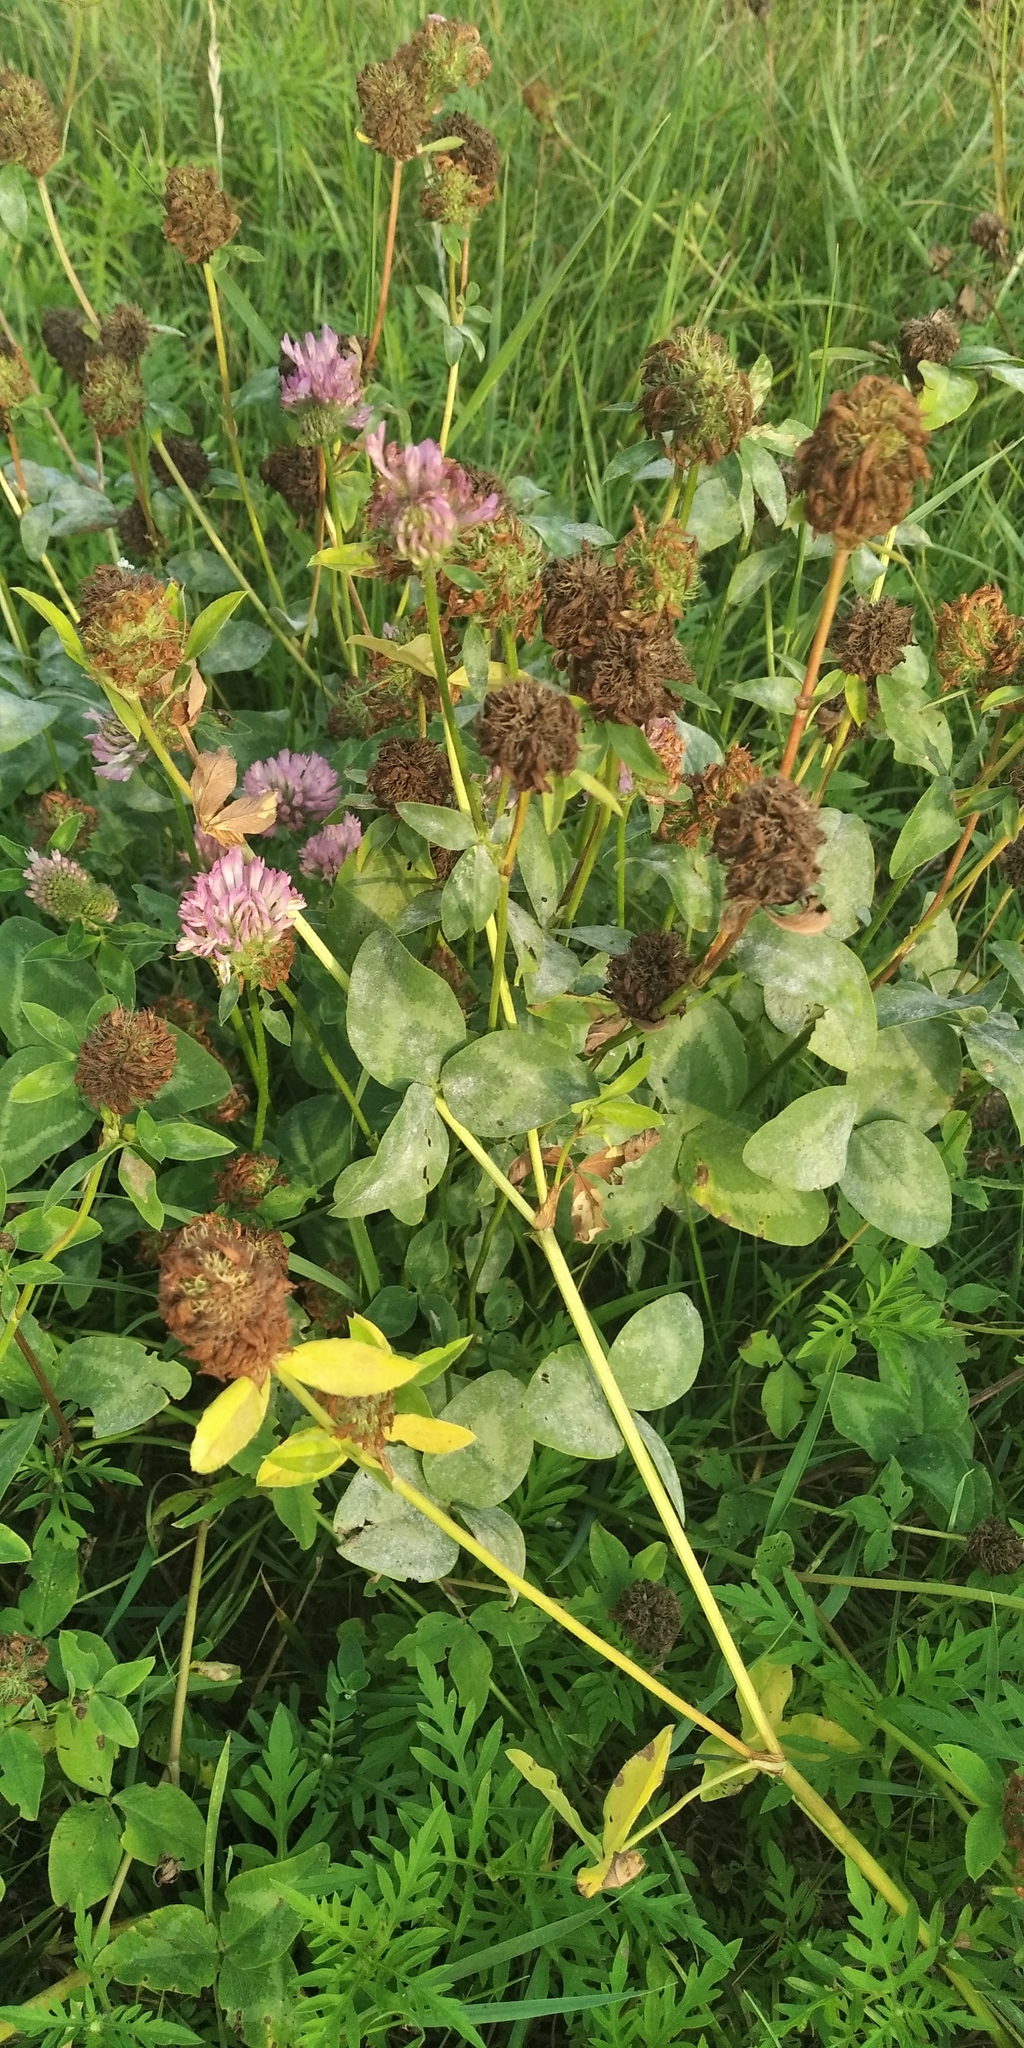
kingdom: Plantae
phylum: Tracheophyta
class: Magnoliopsida
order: Fabales
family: Fabaceae
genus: Trifolium
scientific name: Trifolium pratense
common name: Red clover
